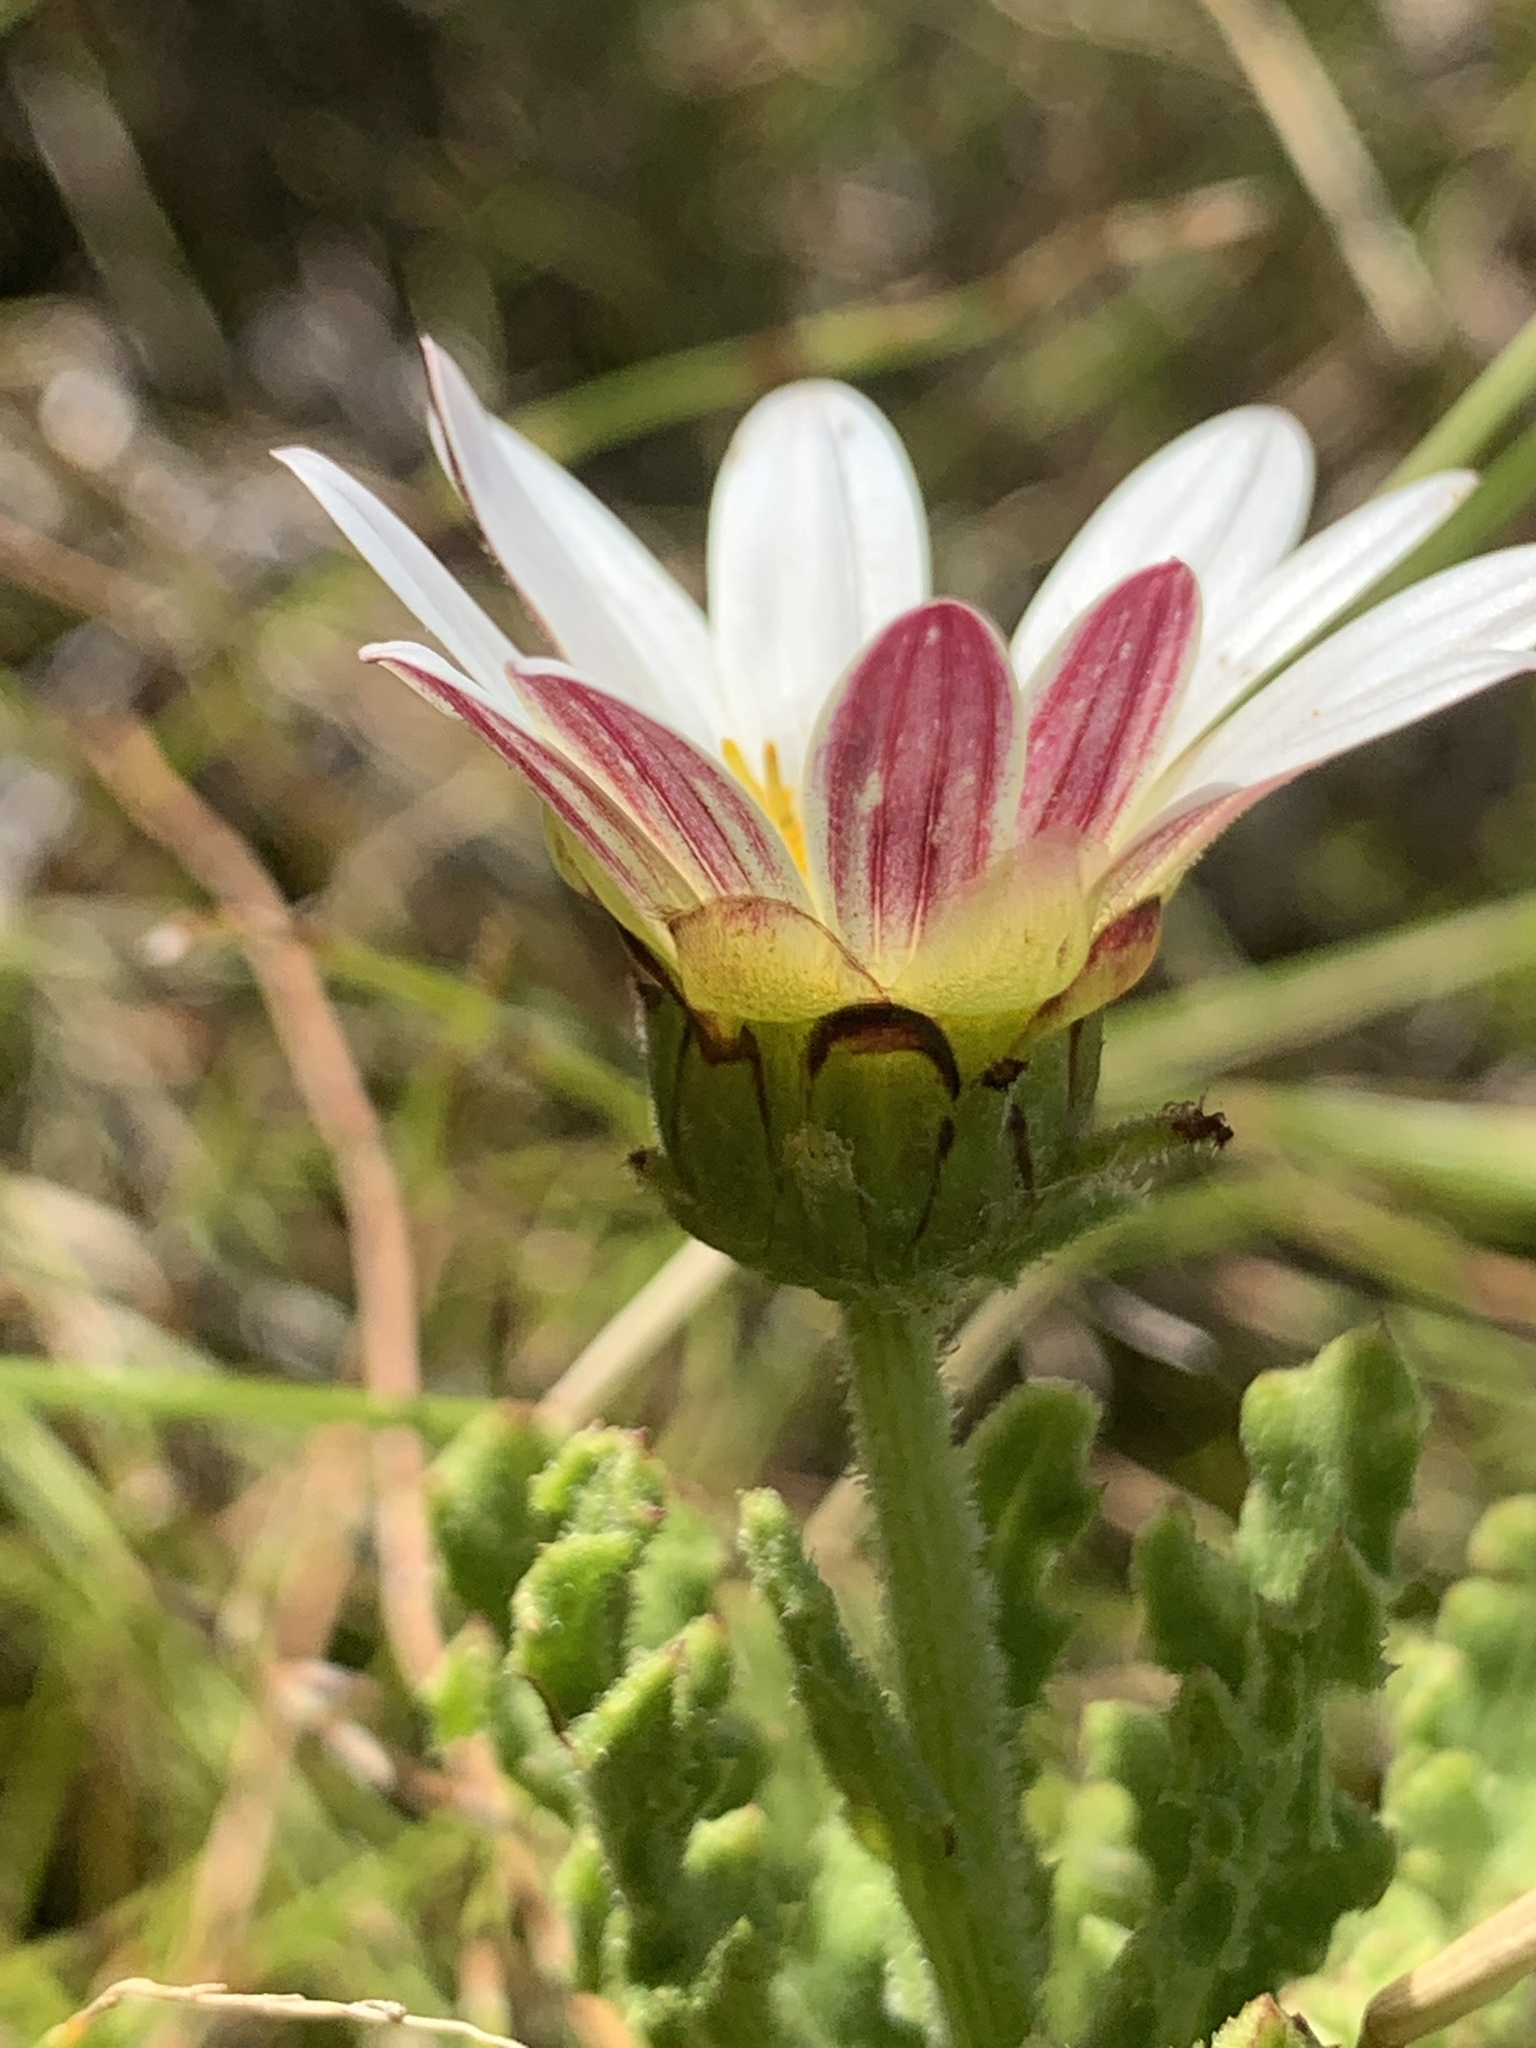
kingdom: Plantae
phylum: Tracheophyta
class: Magnoliopsida
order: Asterales
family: Asteraceae
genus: Arctotis
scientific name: Arctotis aspera
